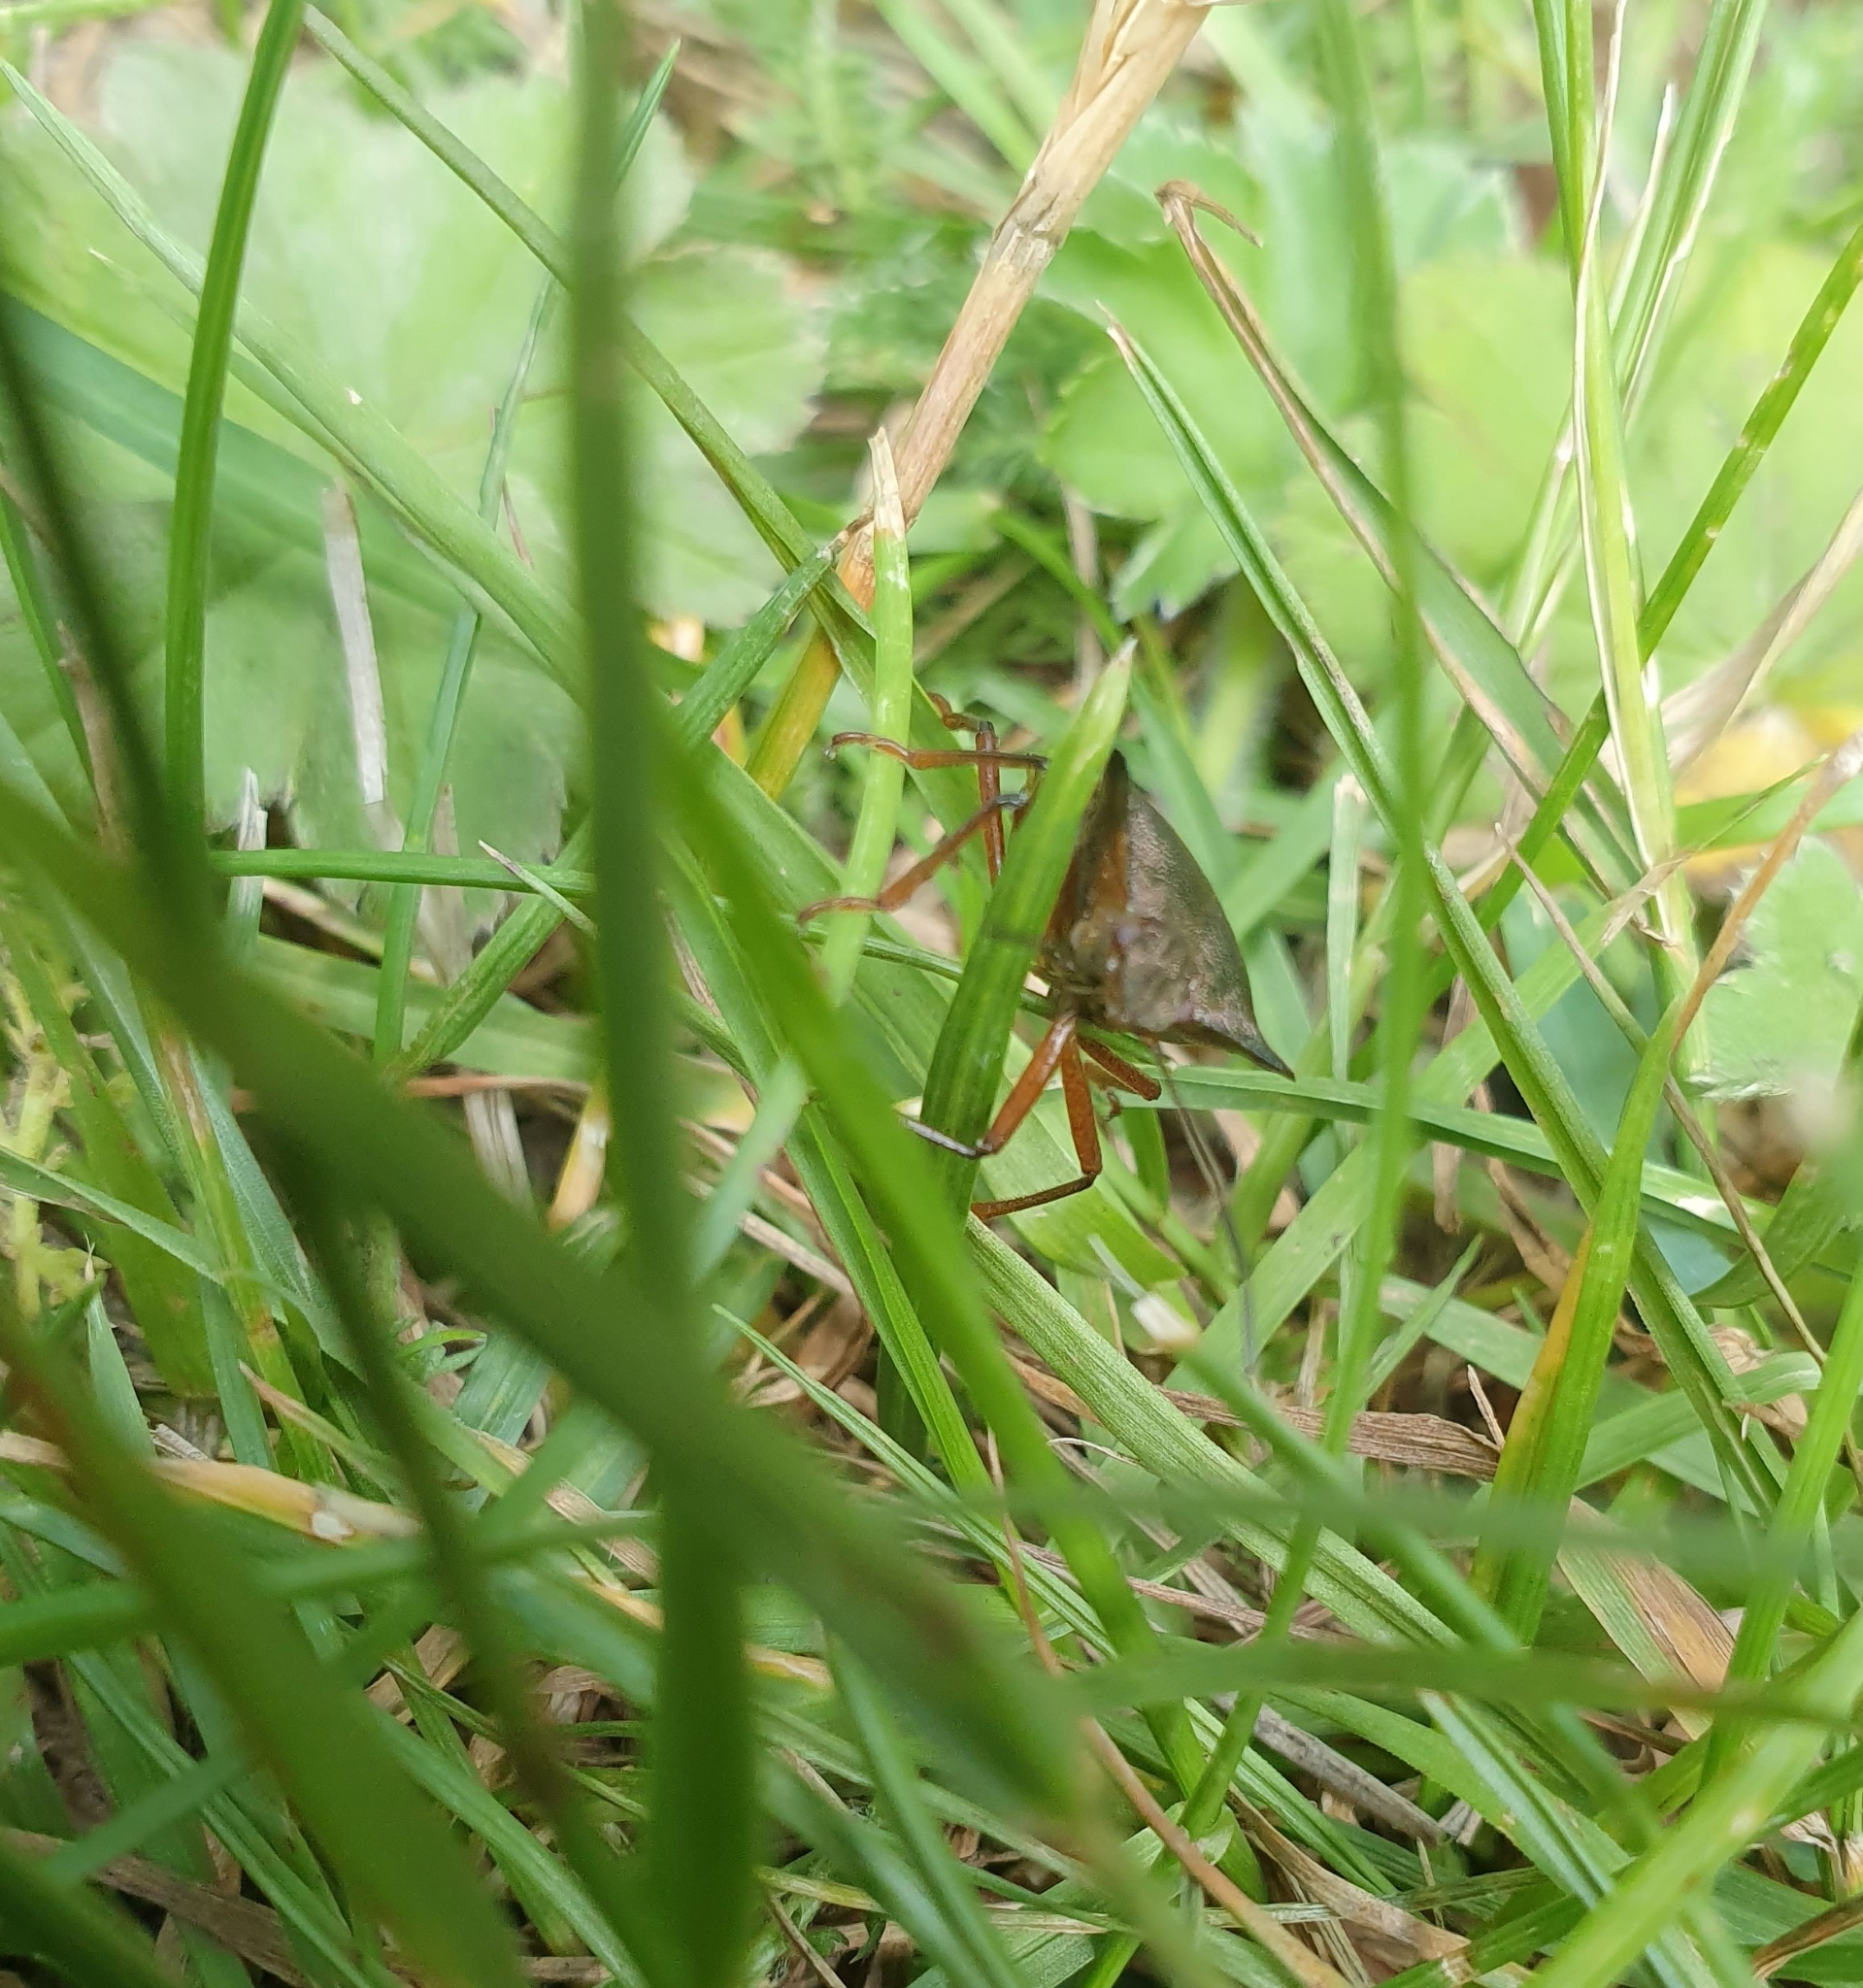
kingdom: Animalia
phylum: Arthropoda
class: Insecta
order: Hemiptera
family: Pentatomidae
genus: Pentatoma
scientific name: Pentatoma rufipes
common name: Forest bug
